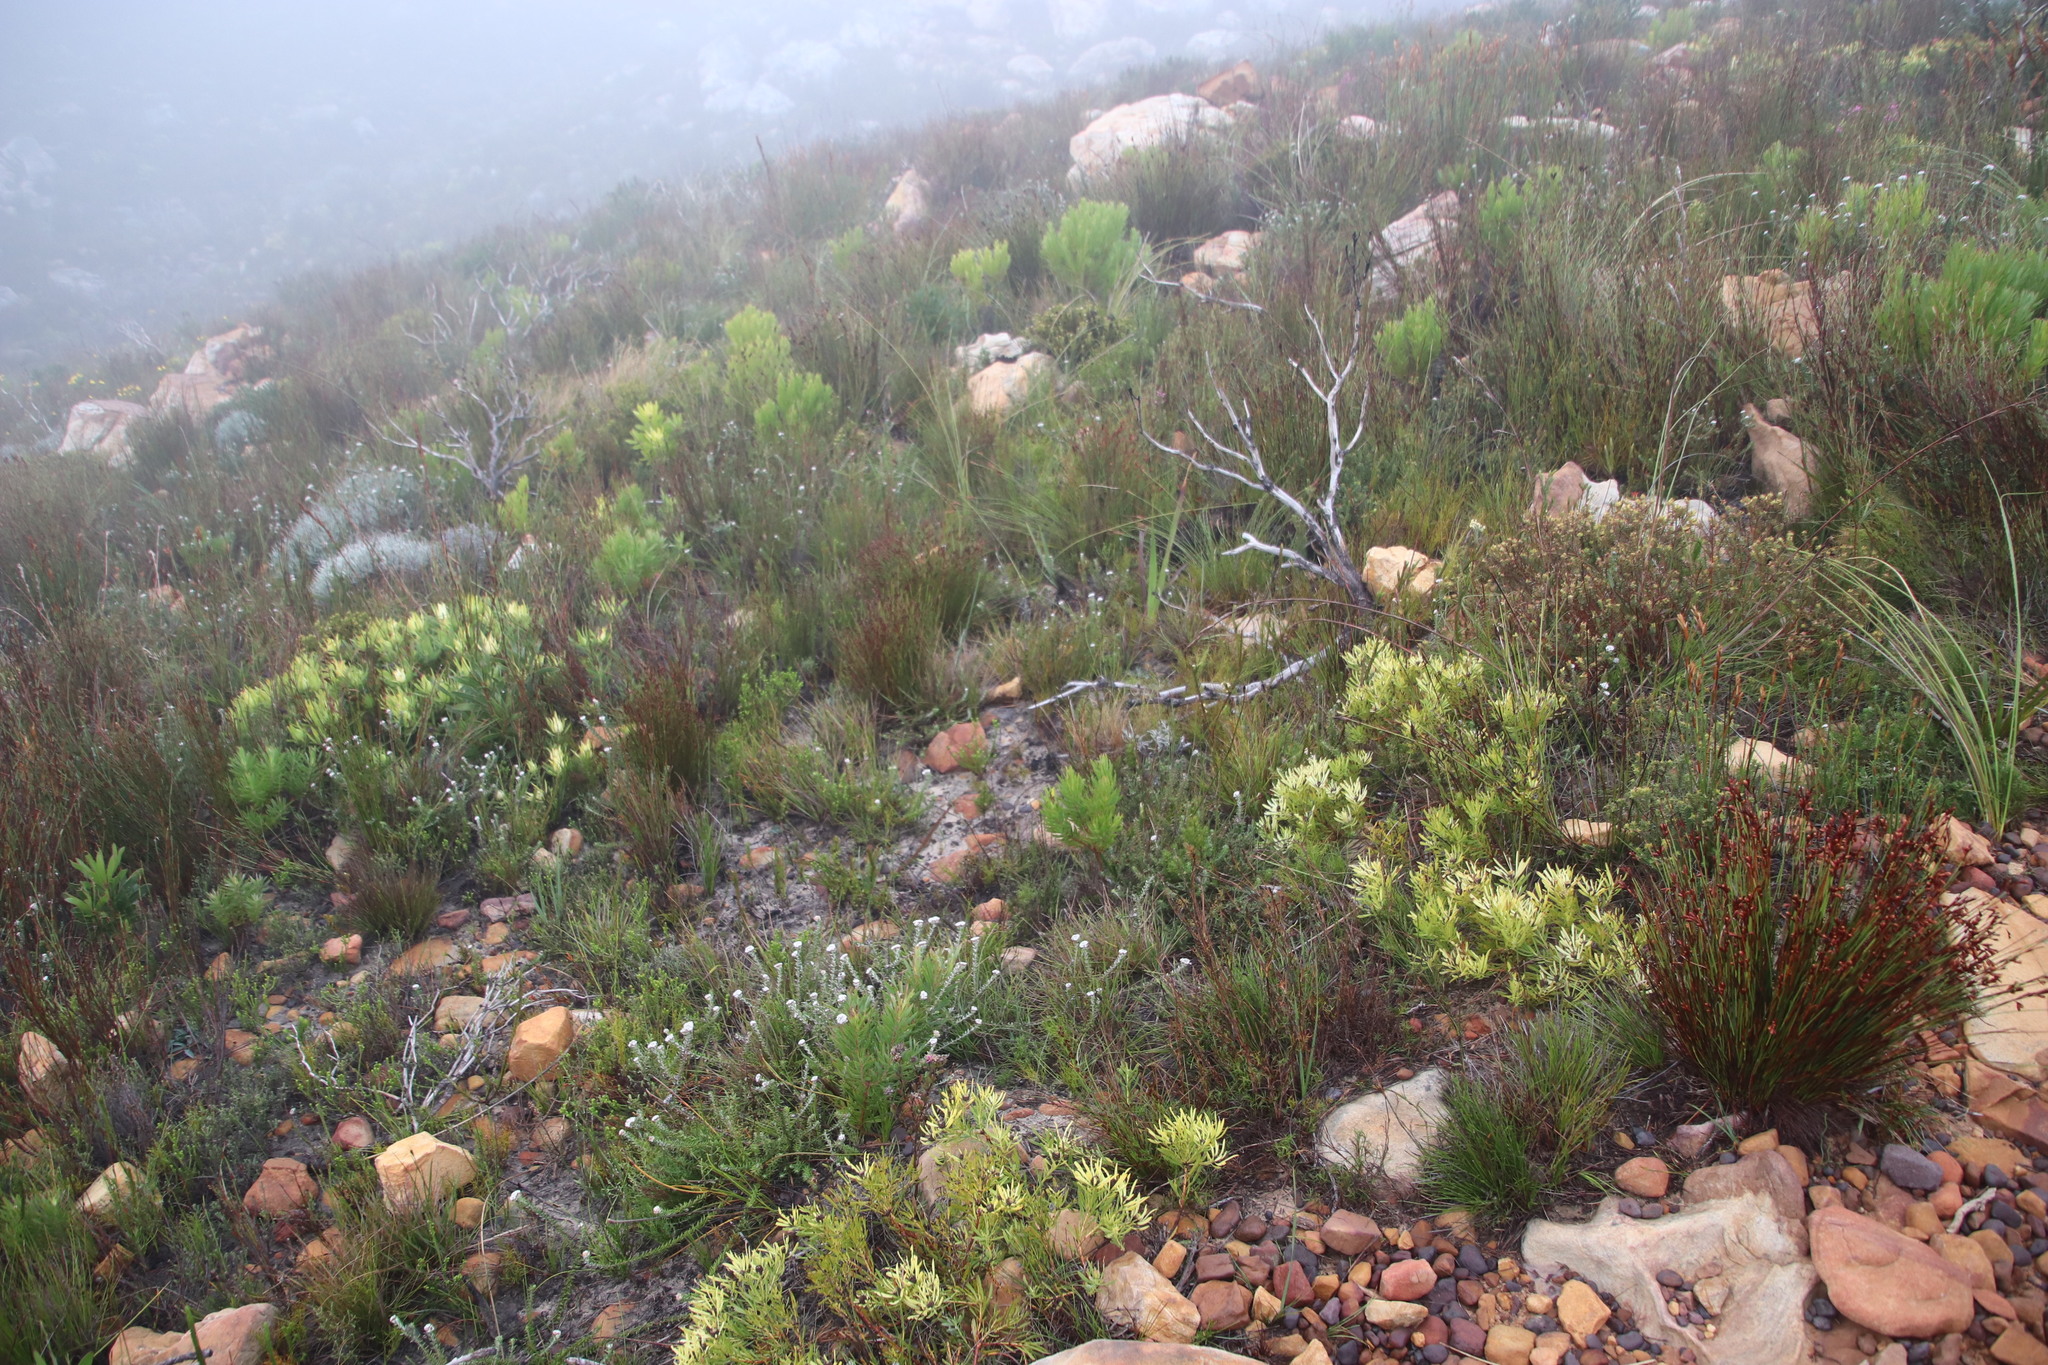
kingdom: Plantae
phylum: Tracheophyta
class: Magnoliopsida
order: Proteales
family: Proteaceae
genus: Leucadendron
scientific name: Leucadendron salignum
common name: Common sunshine conebush
